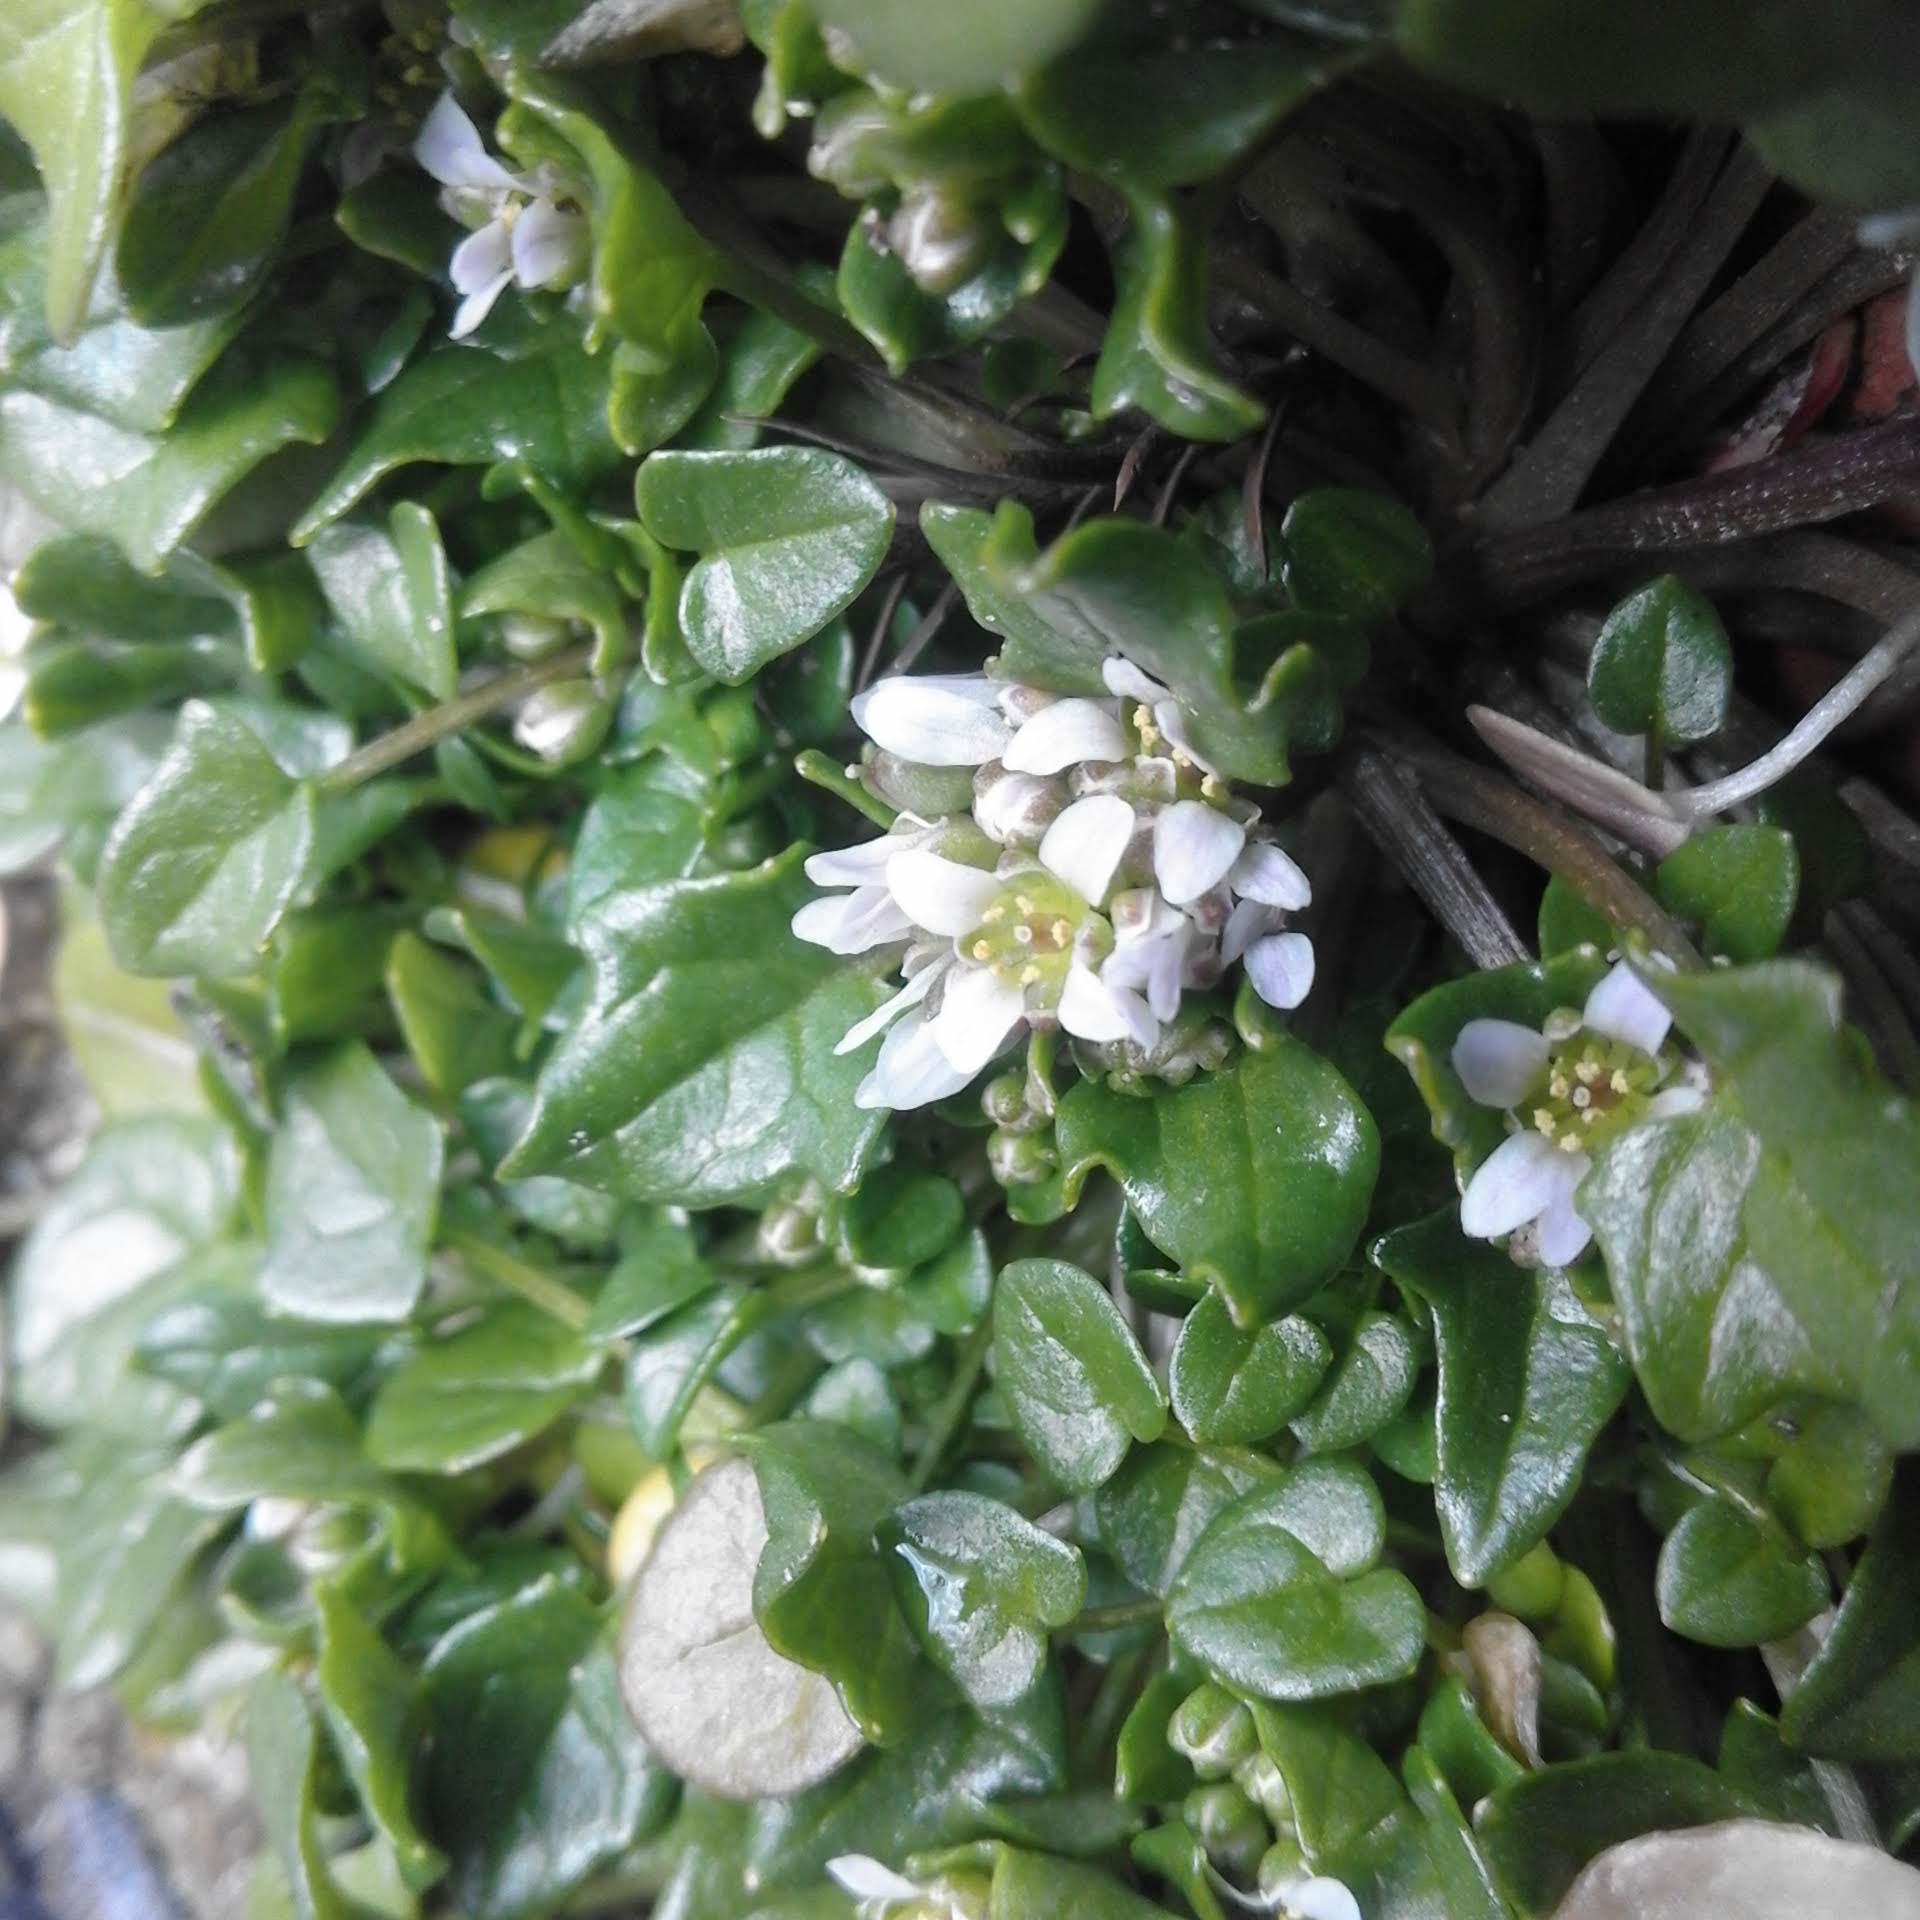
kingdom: Plantae
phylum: Tracheophyta
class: Magnoliopsida
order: Brassicales
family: Brassicaceae
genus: Cochlearia
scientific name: Cochlearia danica
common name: Early scurvygrass
